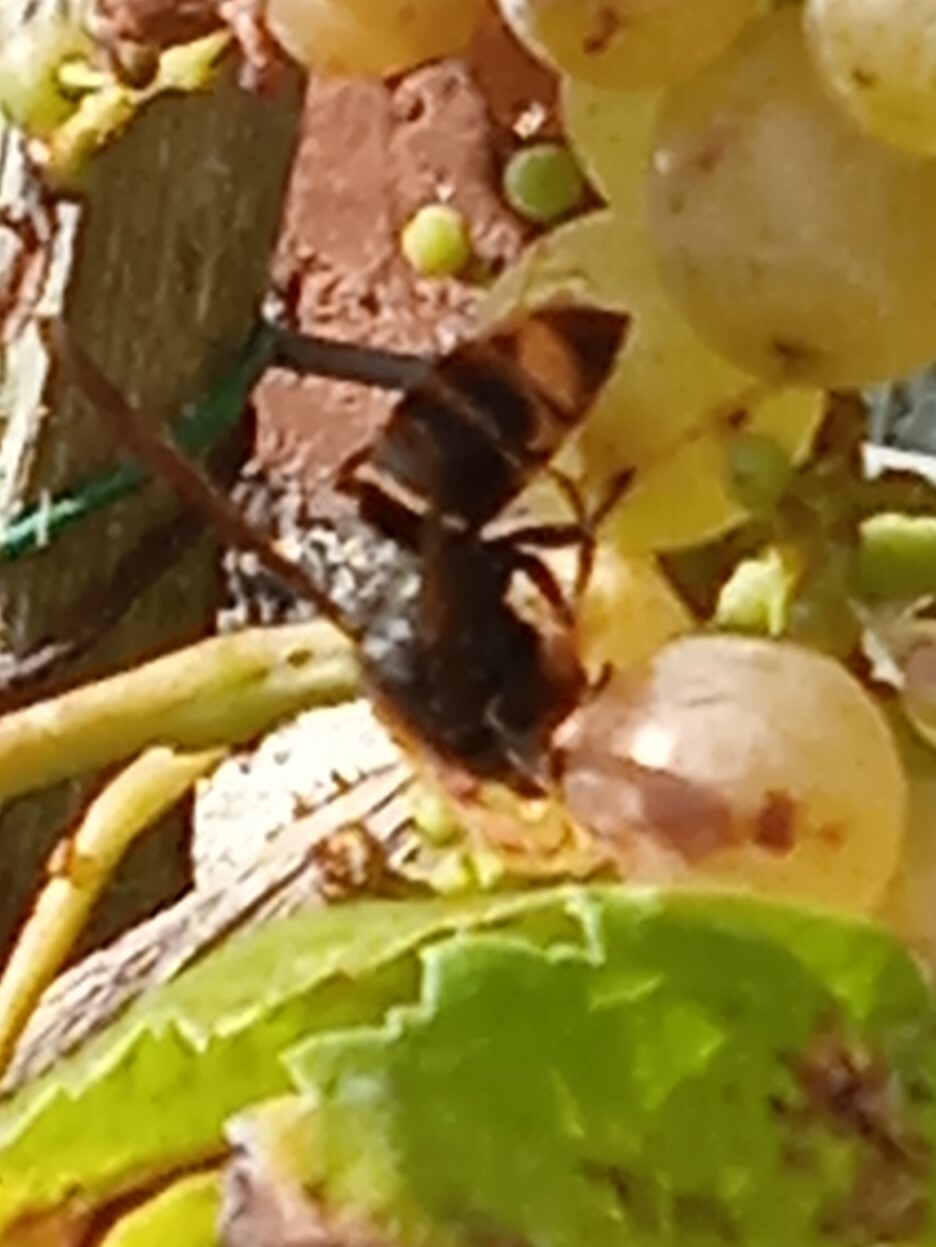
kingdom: Animalia
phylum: Arthropoda
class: Insecta
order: Hymenoptera
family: Vespidae
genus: Vespa
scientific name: Vespa velutina
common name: Asian hornet
